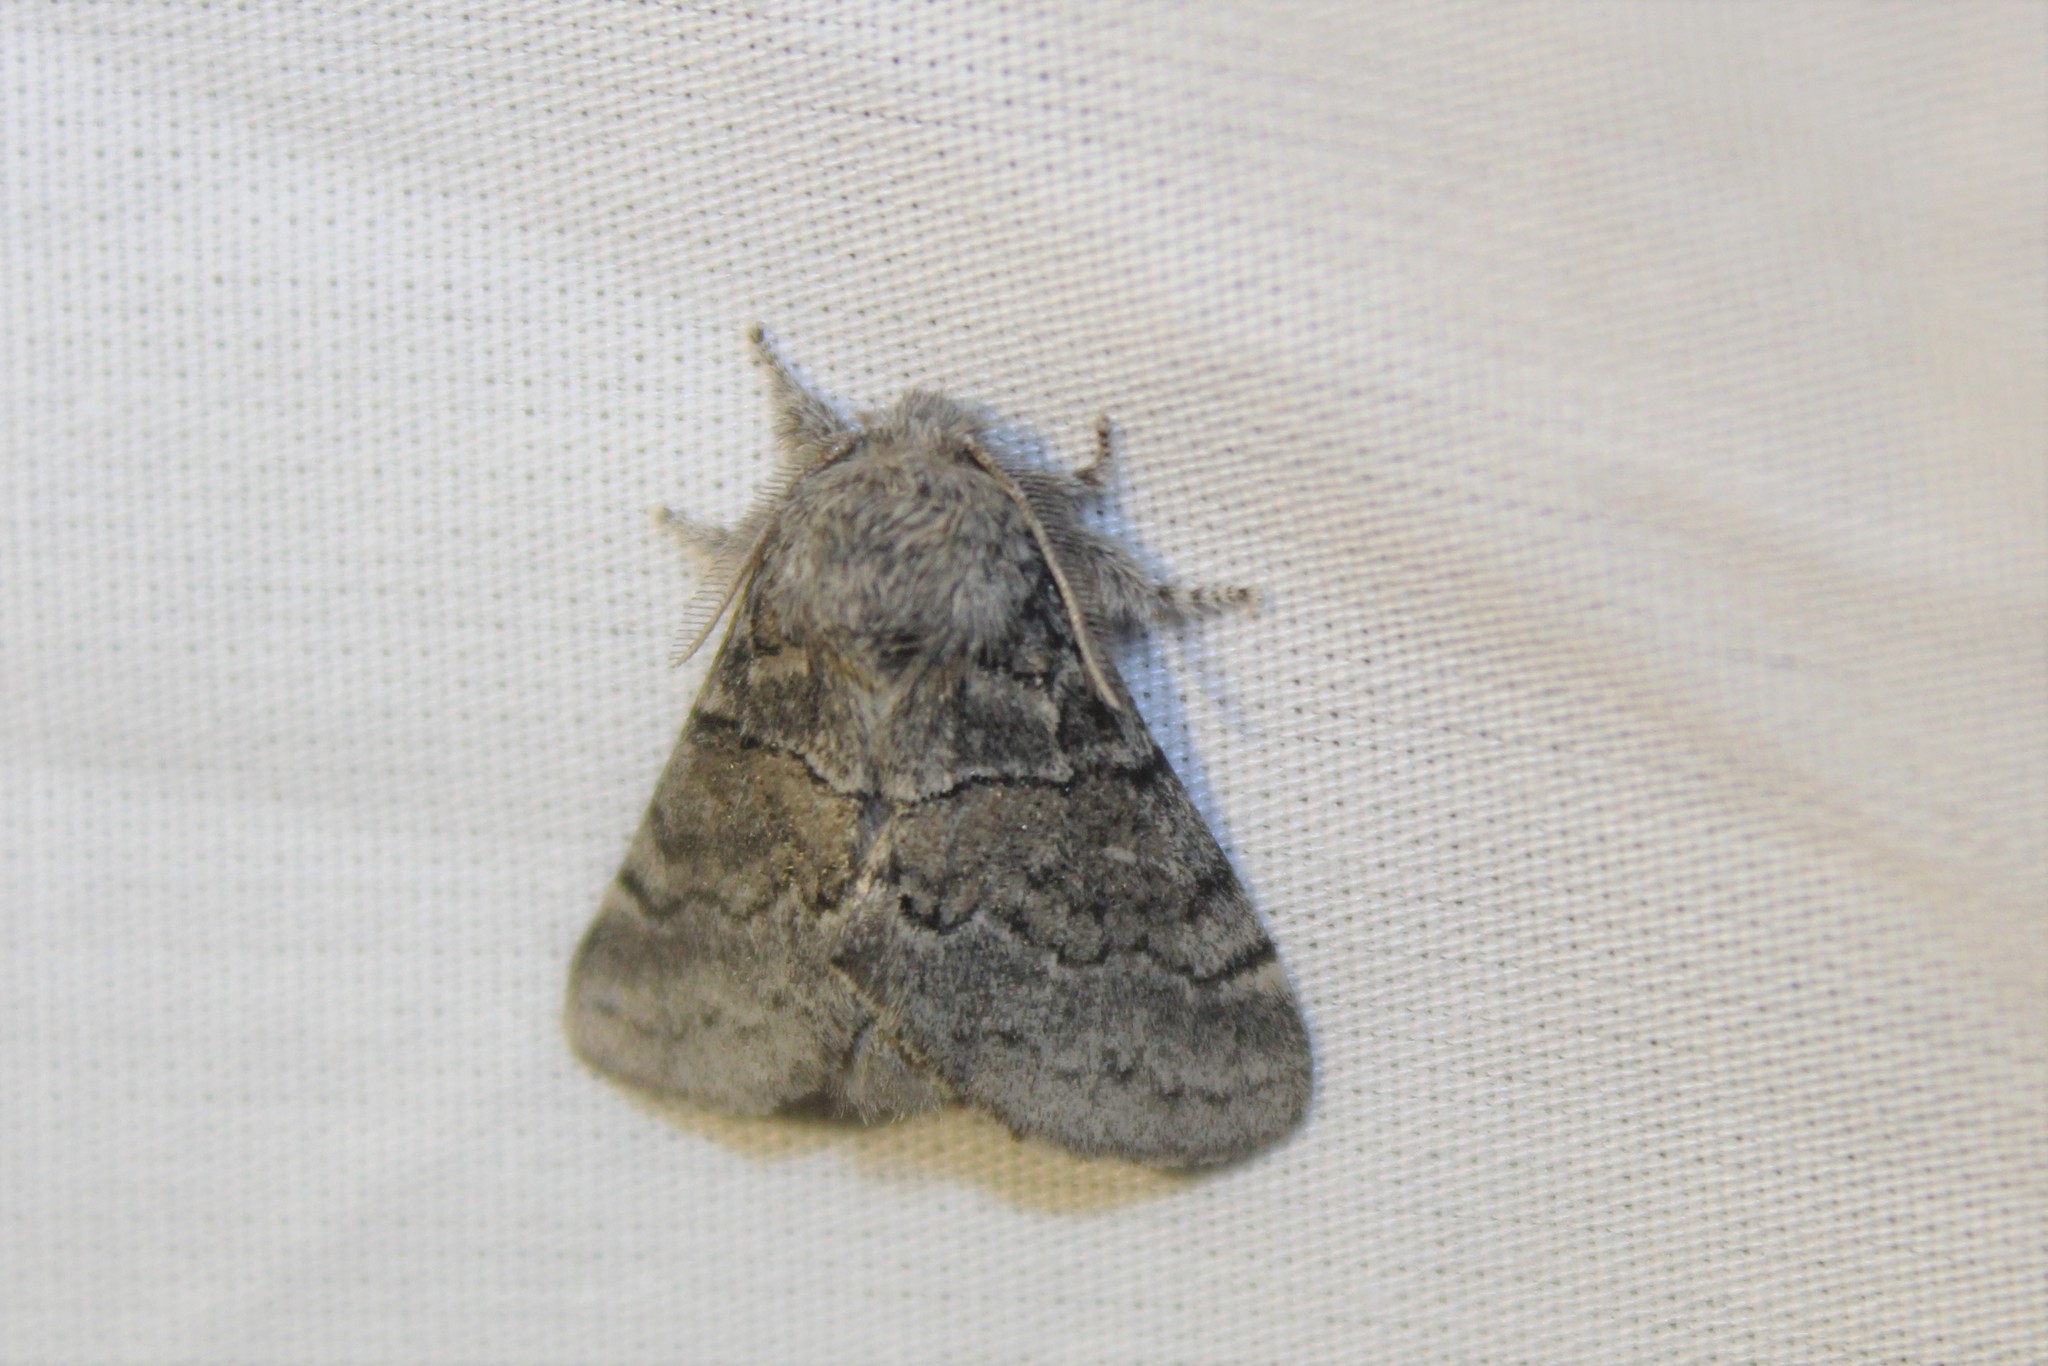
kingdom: Animalia
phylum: Arthropoda
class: Insecta
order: Lepidoptera
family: Notodontidae
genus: Gluphisia
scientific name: Gluphisia septentrionis
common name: Common gluphisia
